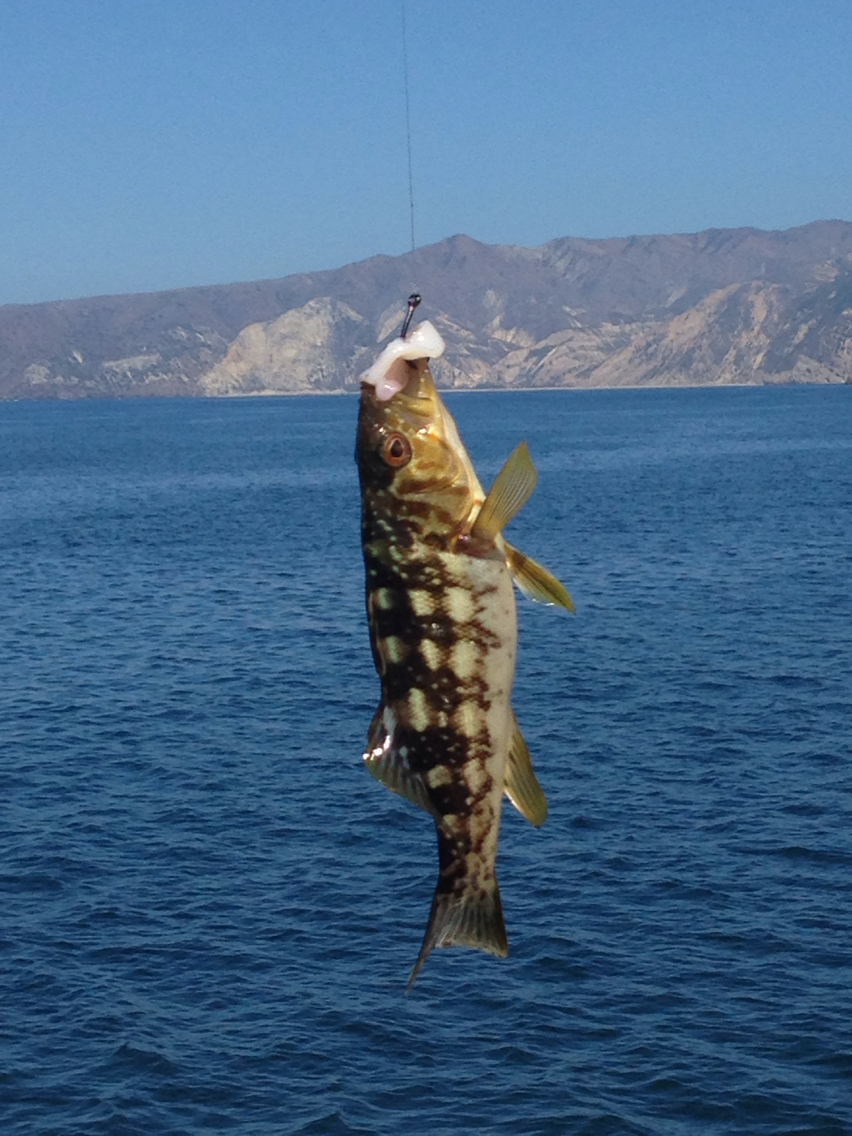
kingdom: Animalia
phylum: Chordata
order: Perciformes
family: Serranidae
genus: Paralabrax
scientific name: Paralabrax clathratus
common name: Kelp bass
